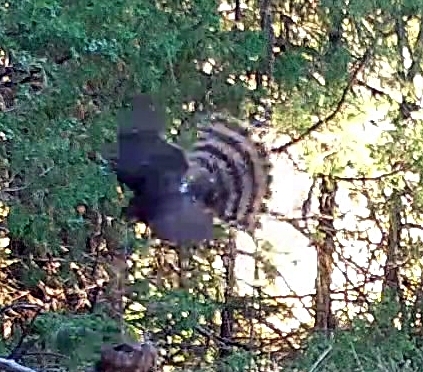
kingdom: Animalia
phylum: Chordata
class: Aves
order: Accipitriformes
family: Accipitridae
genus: Accipiter
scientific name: Accipiter cooperii
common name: Cooper's hawk
